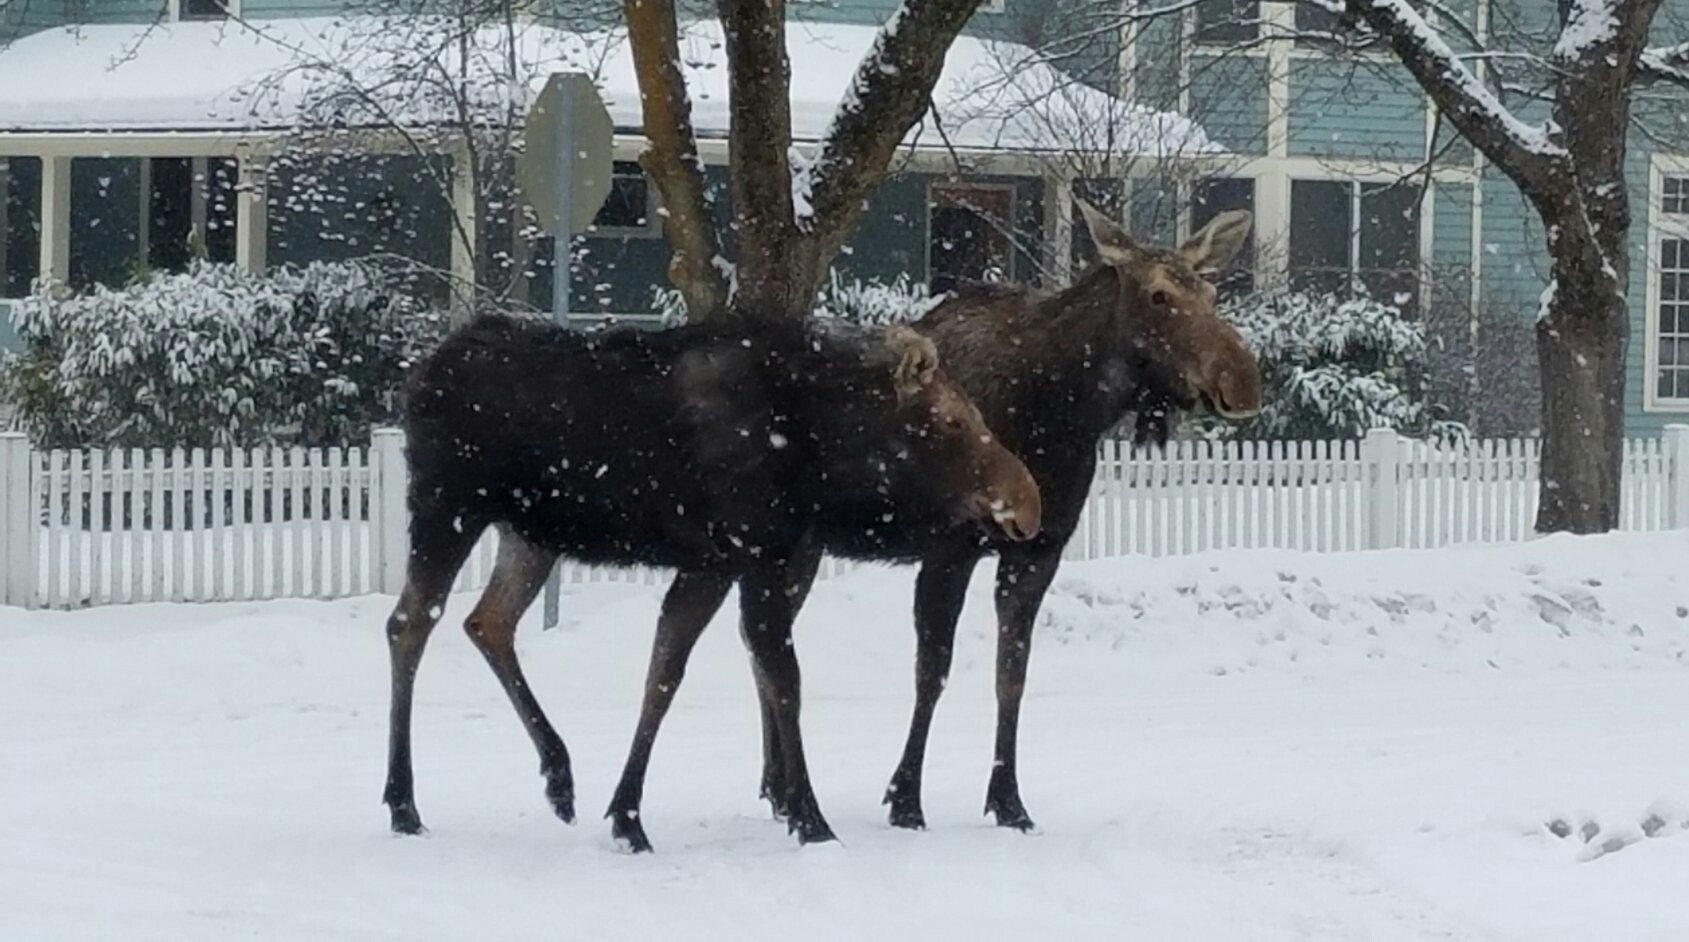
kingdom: Animalia
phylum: Chordata
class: Mammalia
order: Artiodactyla
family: Cervidae
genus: Alces
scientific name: Alces alces
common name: Moose
